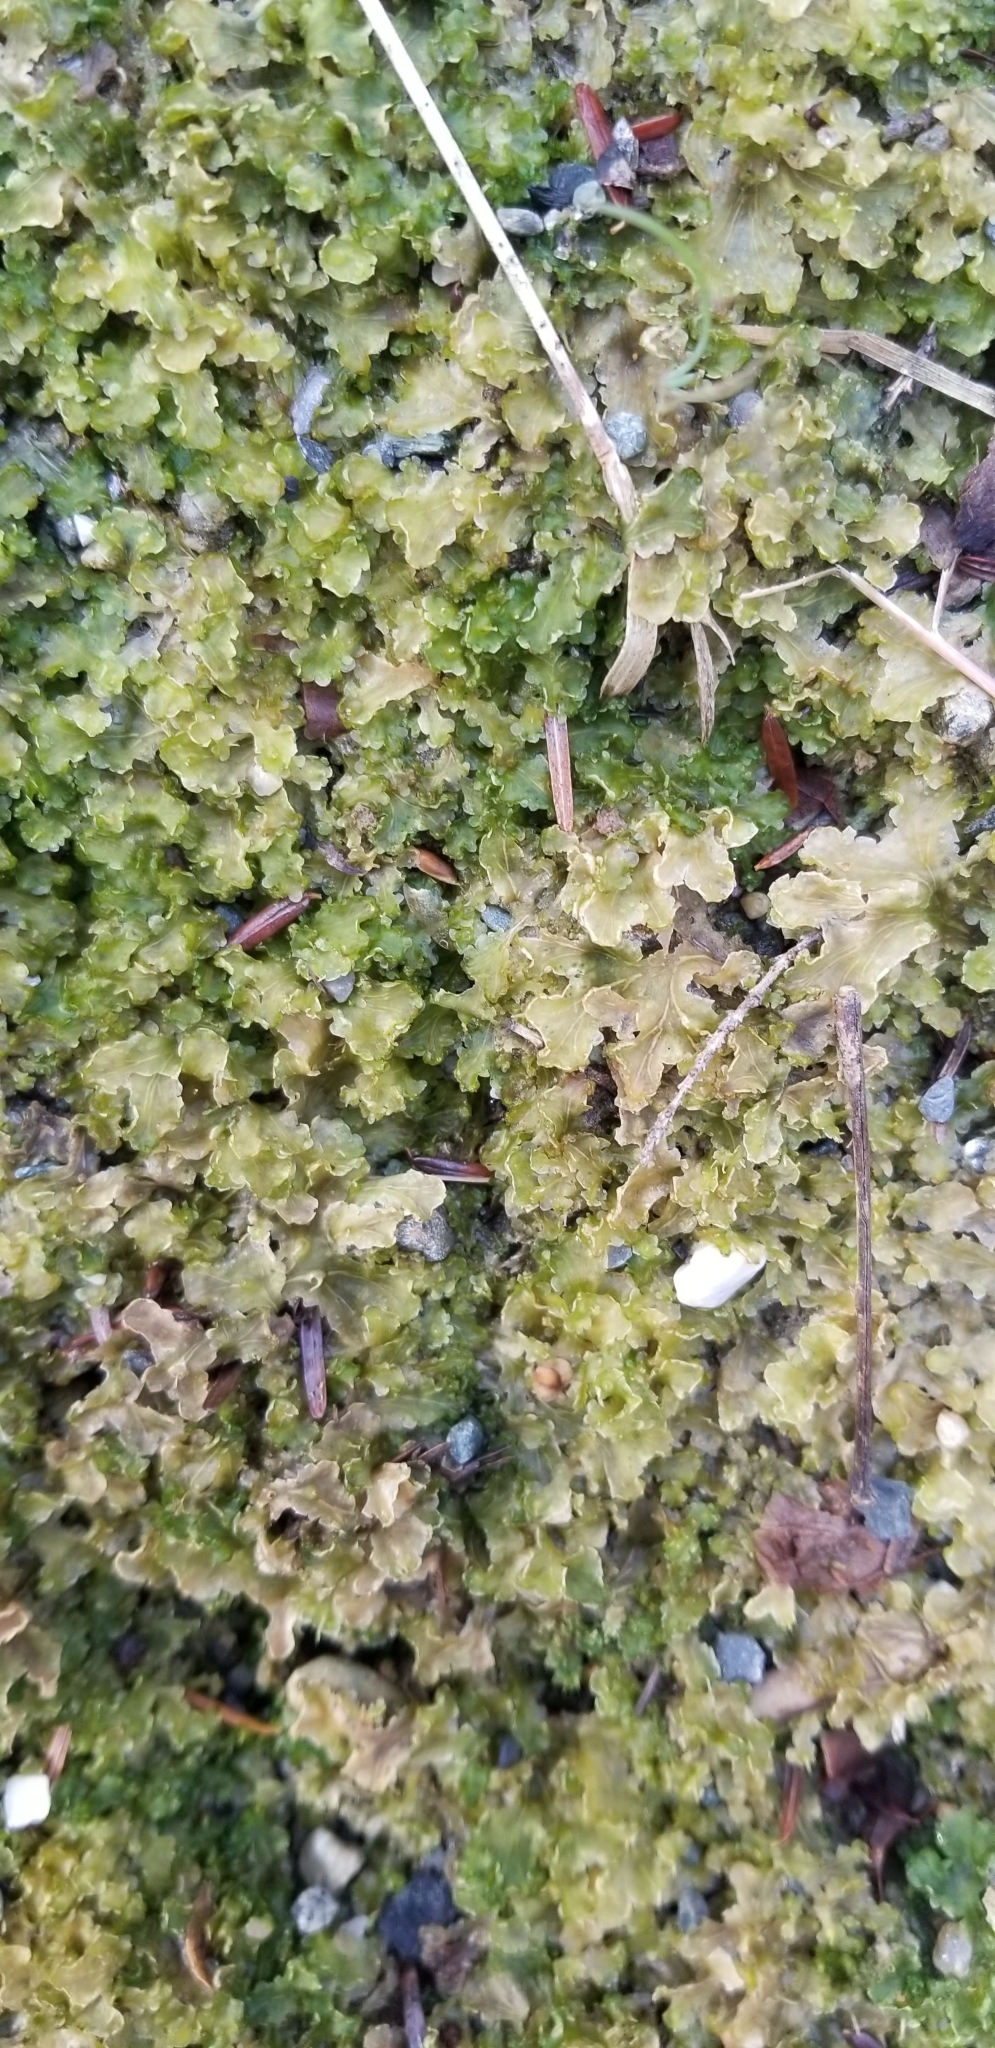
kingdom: Plantae
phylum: Marchantiophyta
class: Marchantiopsida
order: Blasiales
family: Blasiaceae
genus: Blasia
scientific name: Blasia pusilla
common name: Common kettlewort
